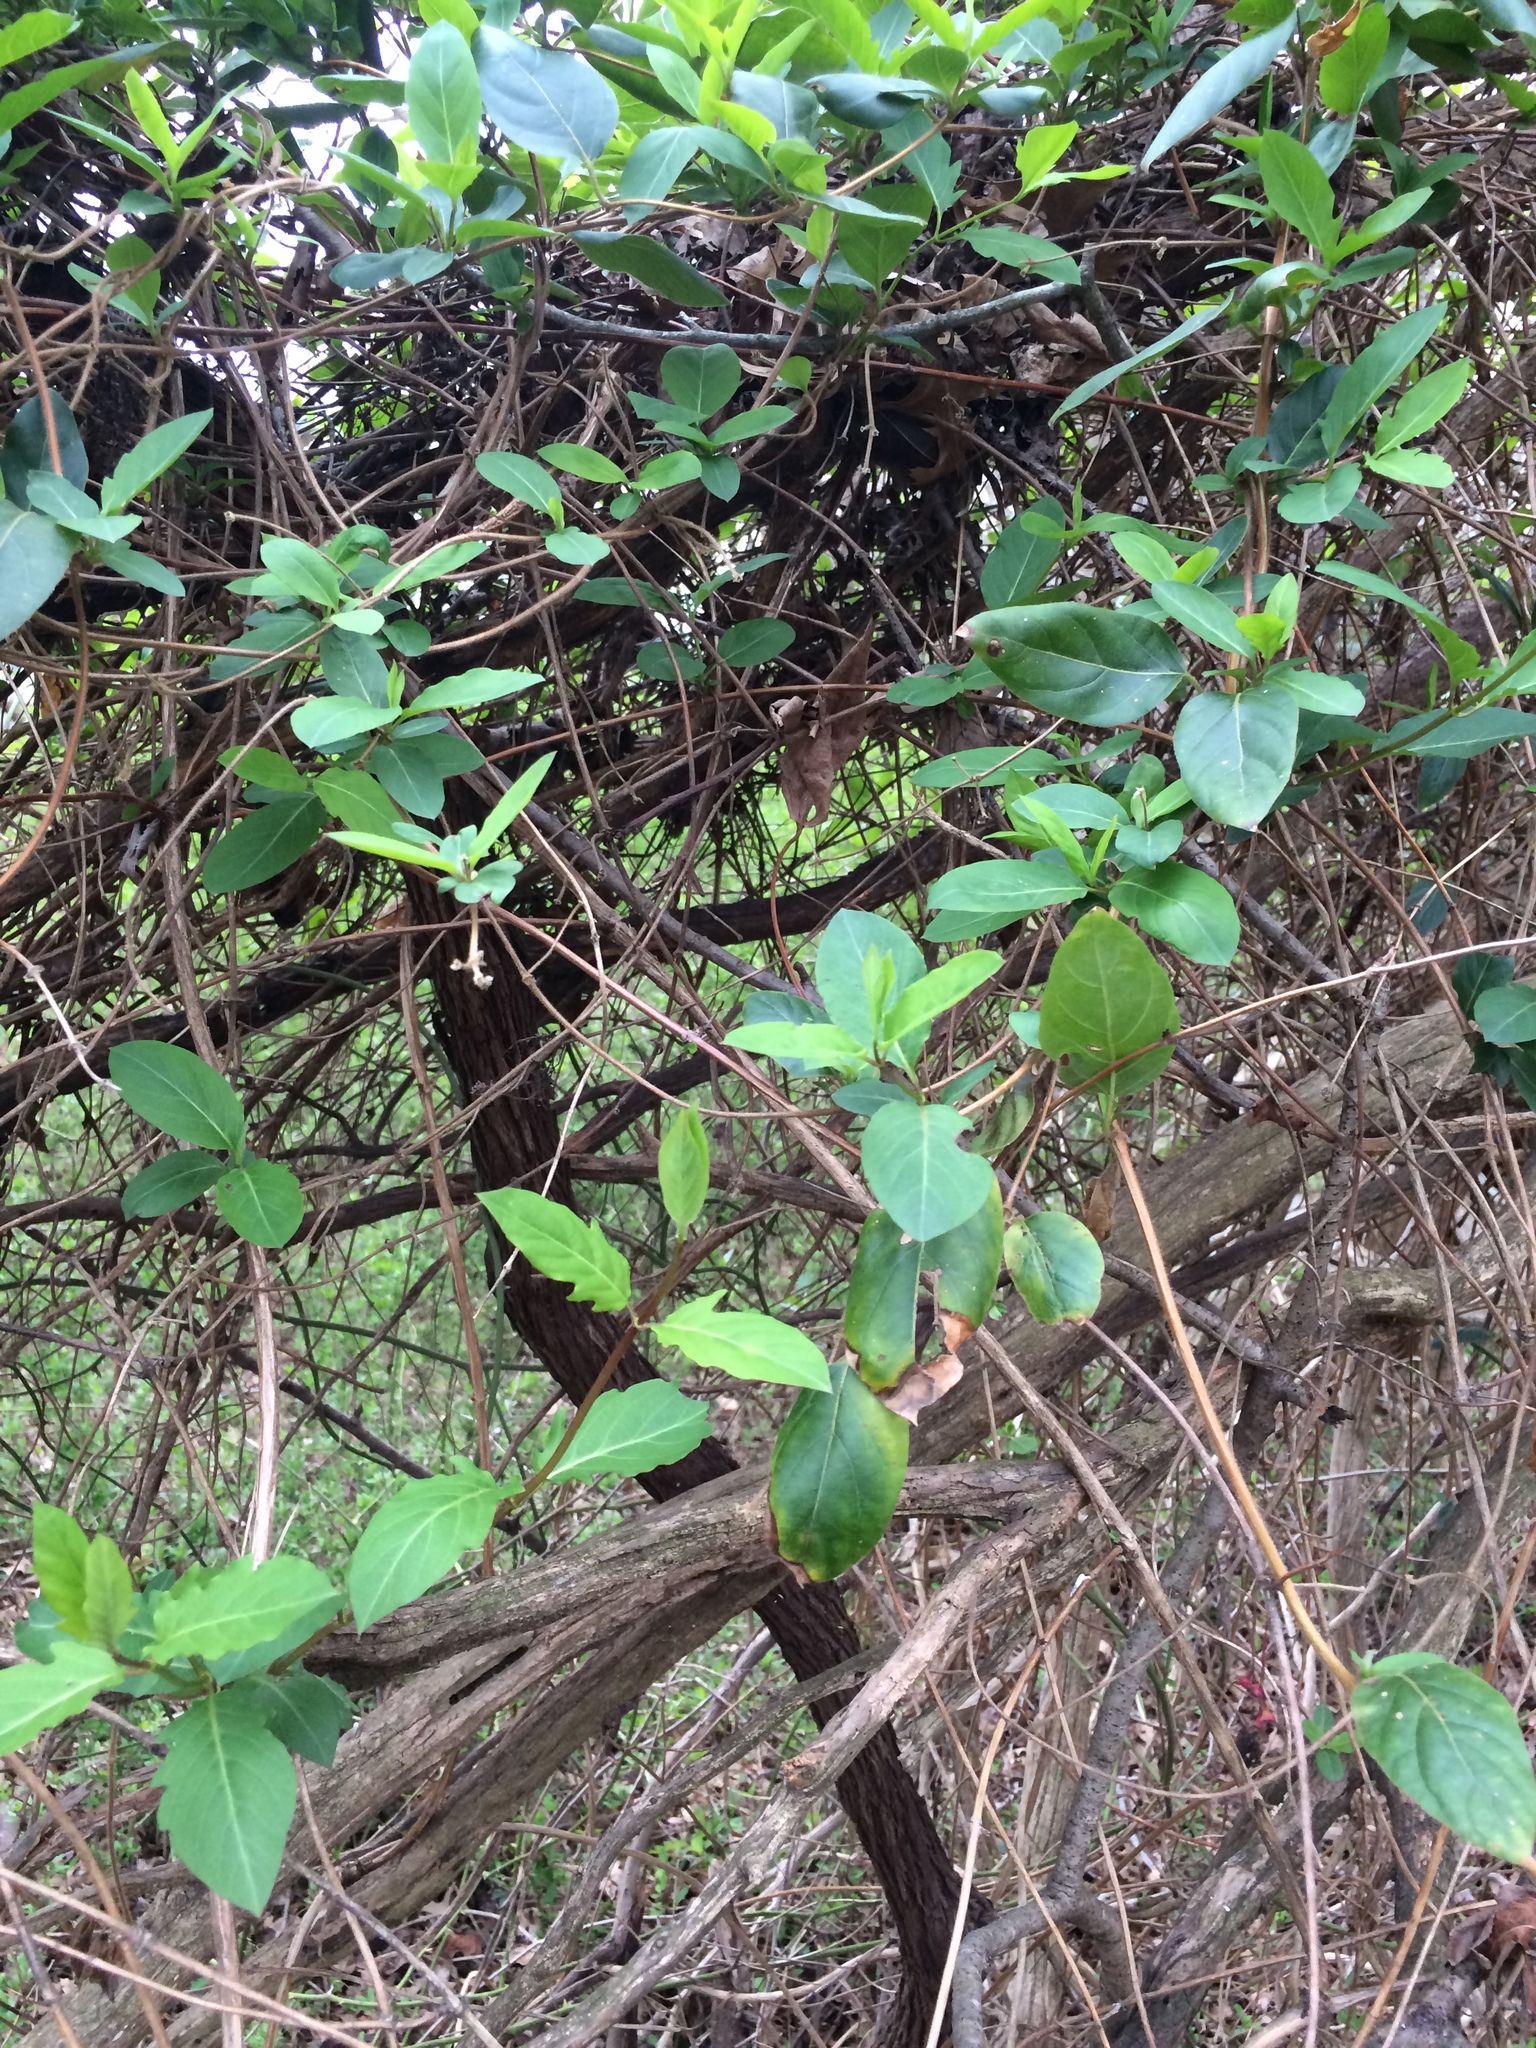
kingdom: Plantae
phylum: Tracheophyta
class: Magnoliopsida
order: Dipsacales
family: Caprifoliaceae
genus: Lonicera
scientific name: Lonicera japonica
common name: Japanese honeysuckle
